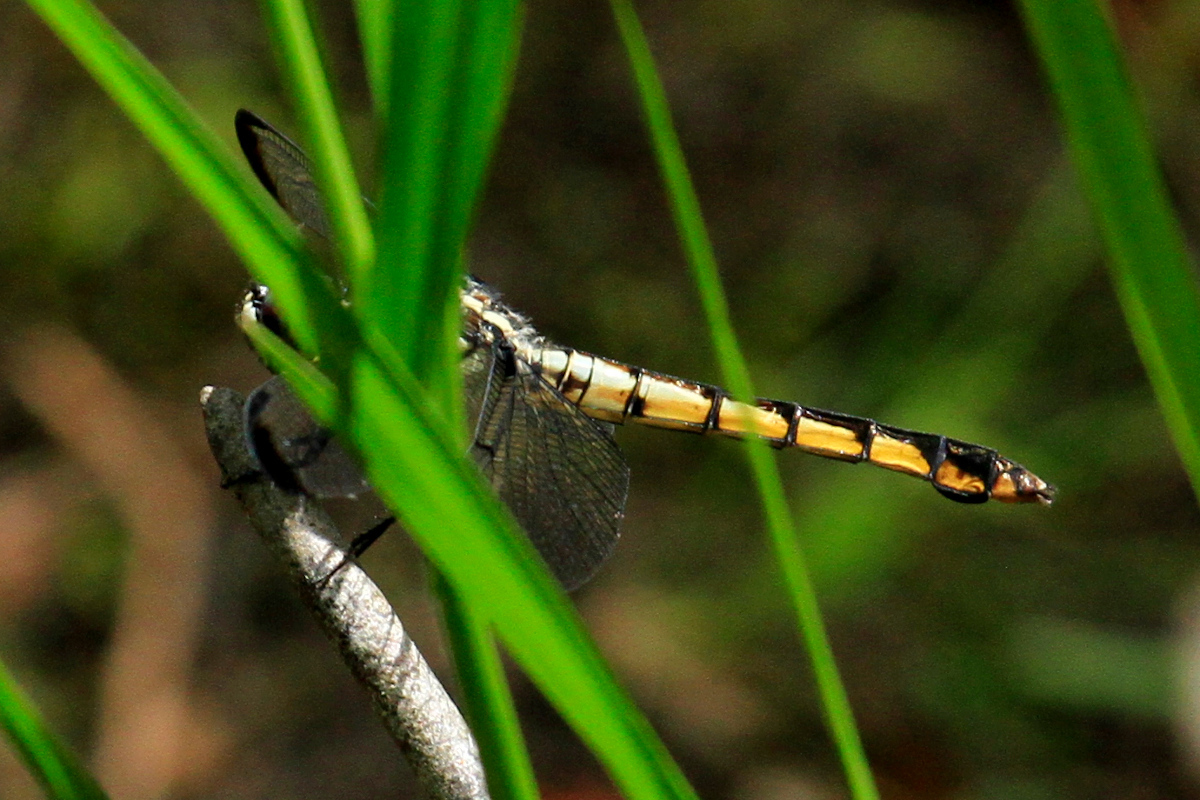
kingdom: Animalia
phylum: Arthropoda
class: Insecta
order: Odonata
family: Libellulidae
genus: Libellula
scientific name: Libellula vibrans
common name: Great blue skimmer
